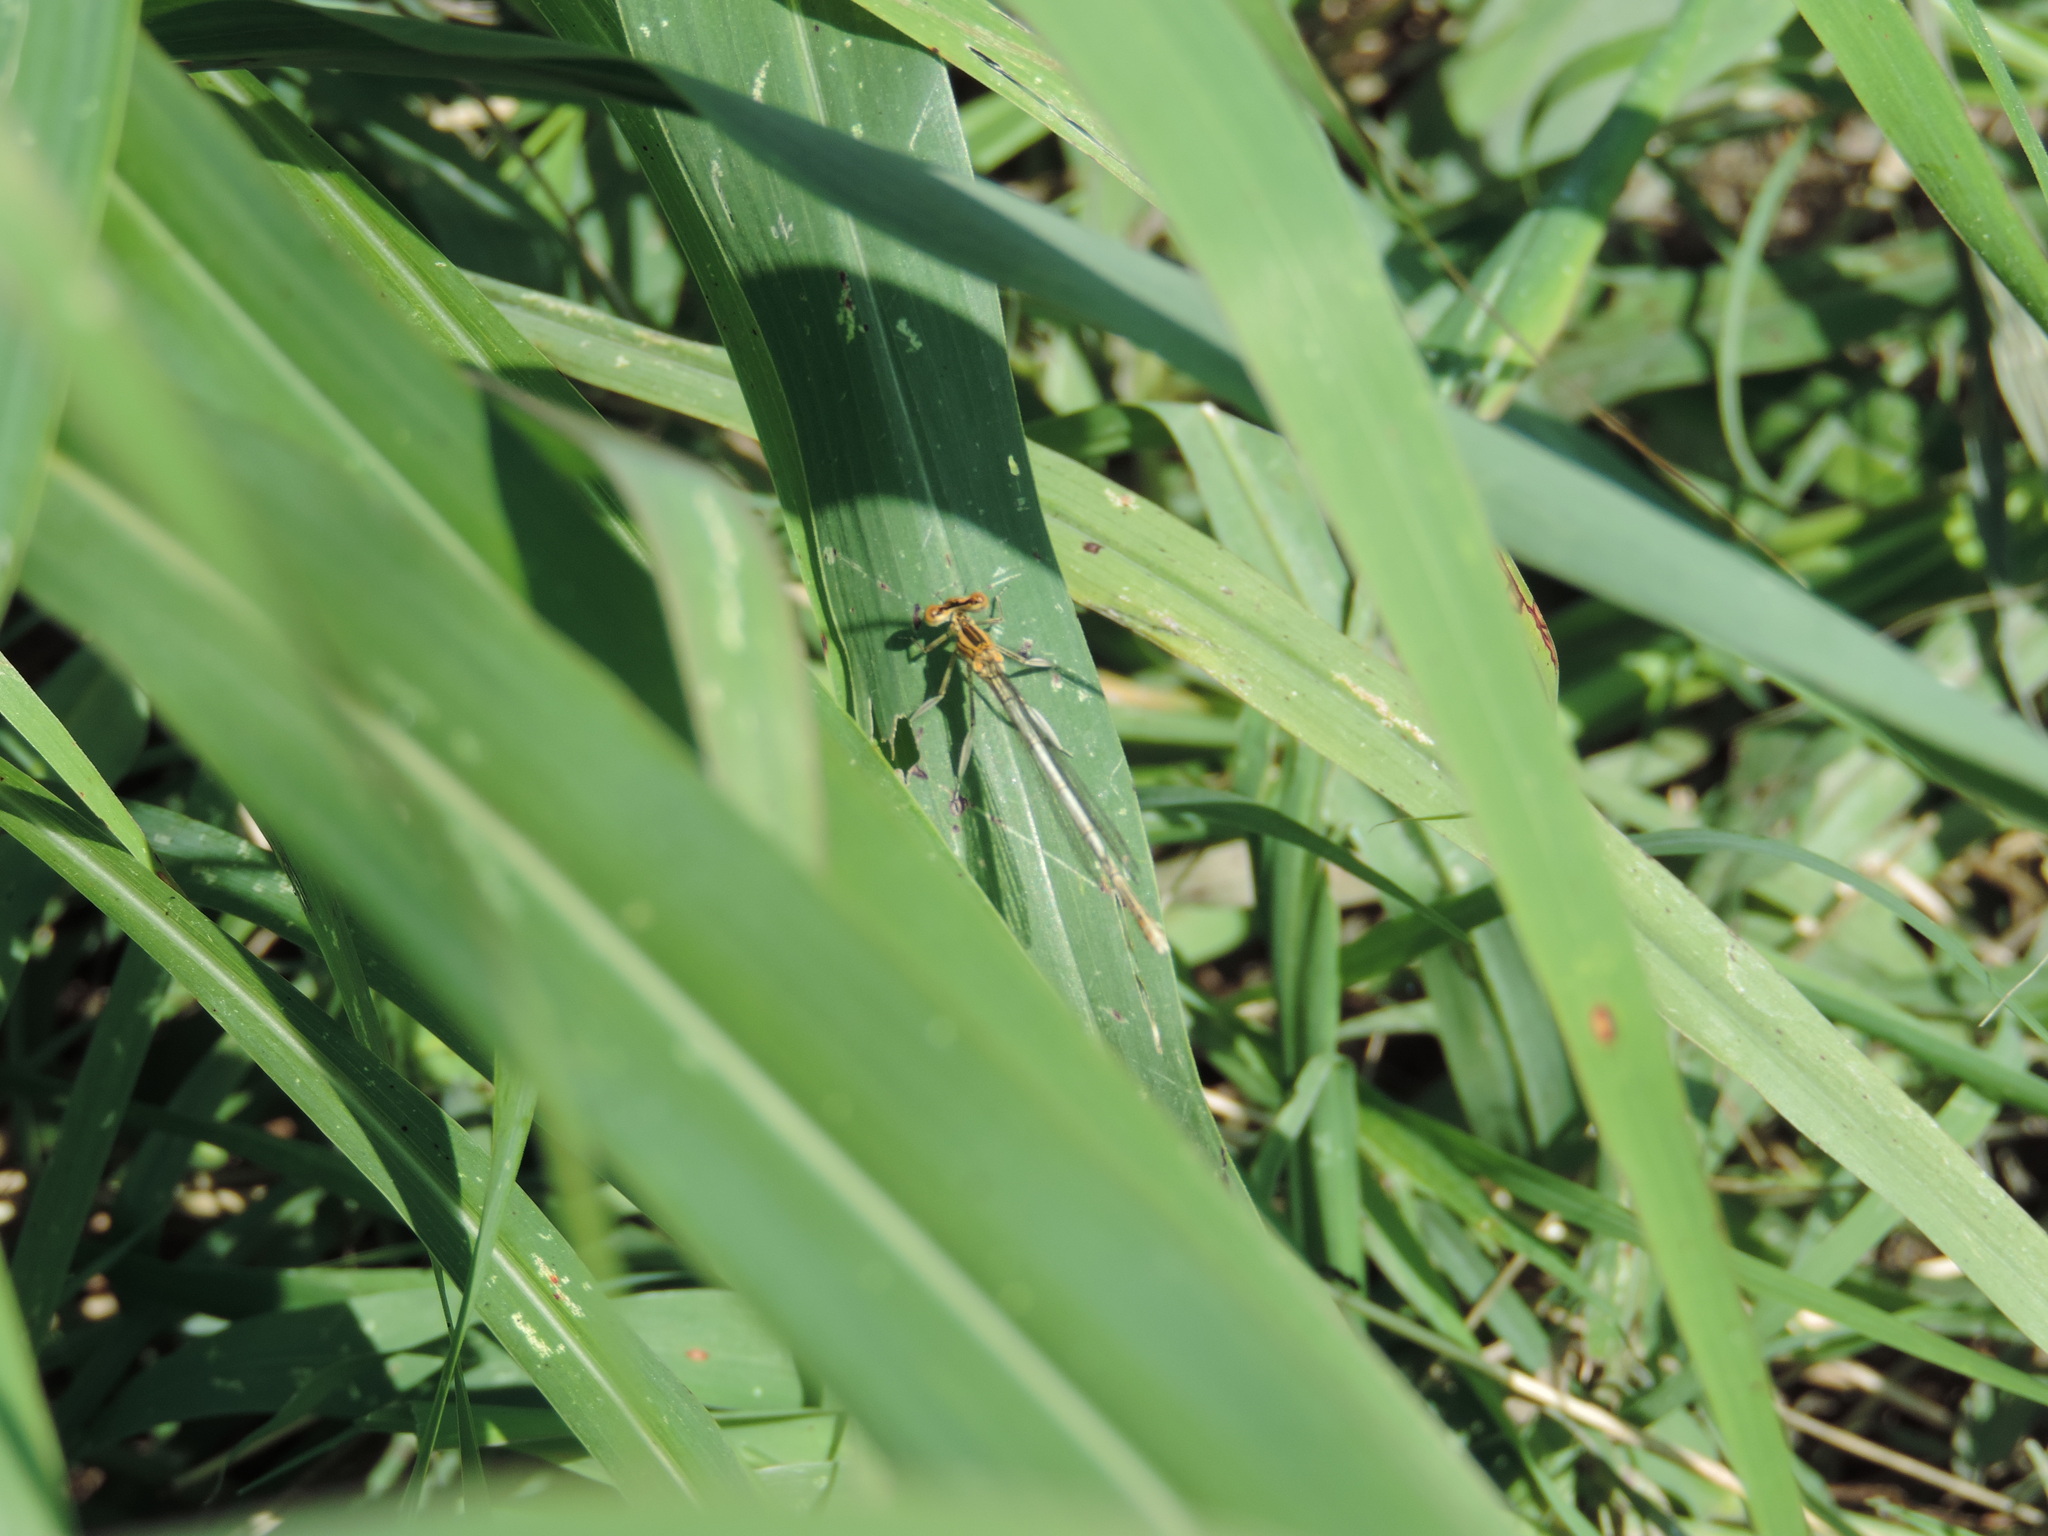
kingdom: Animalia
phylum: Arthropoda
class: Insecta
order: Odonata
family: Platycnemididae
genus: Platycnemis
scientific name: Platycnemis pennipes
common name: White-legged damselfly
